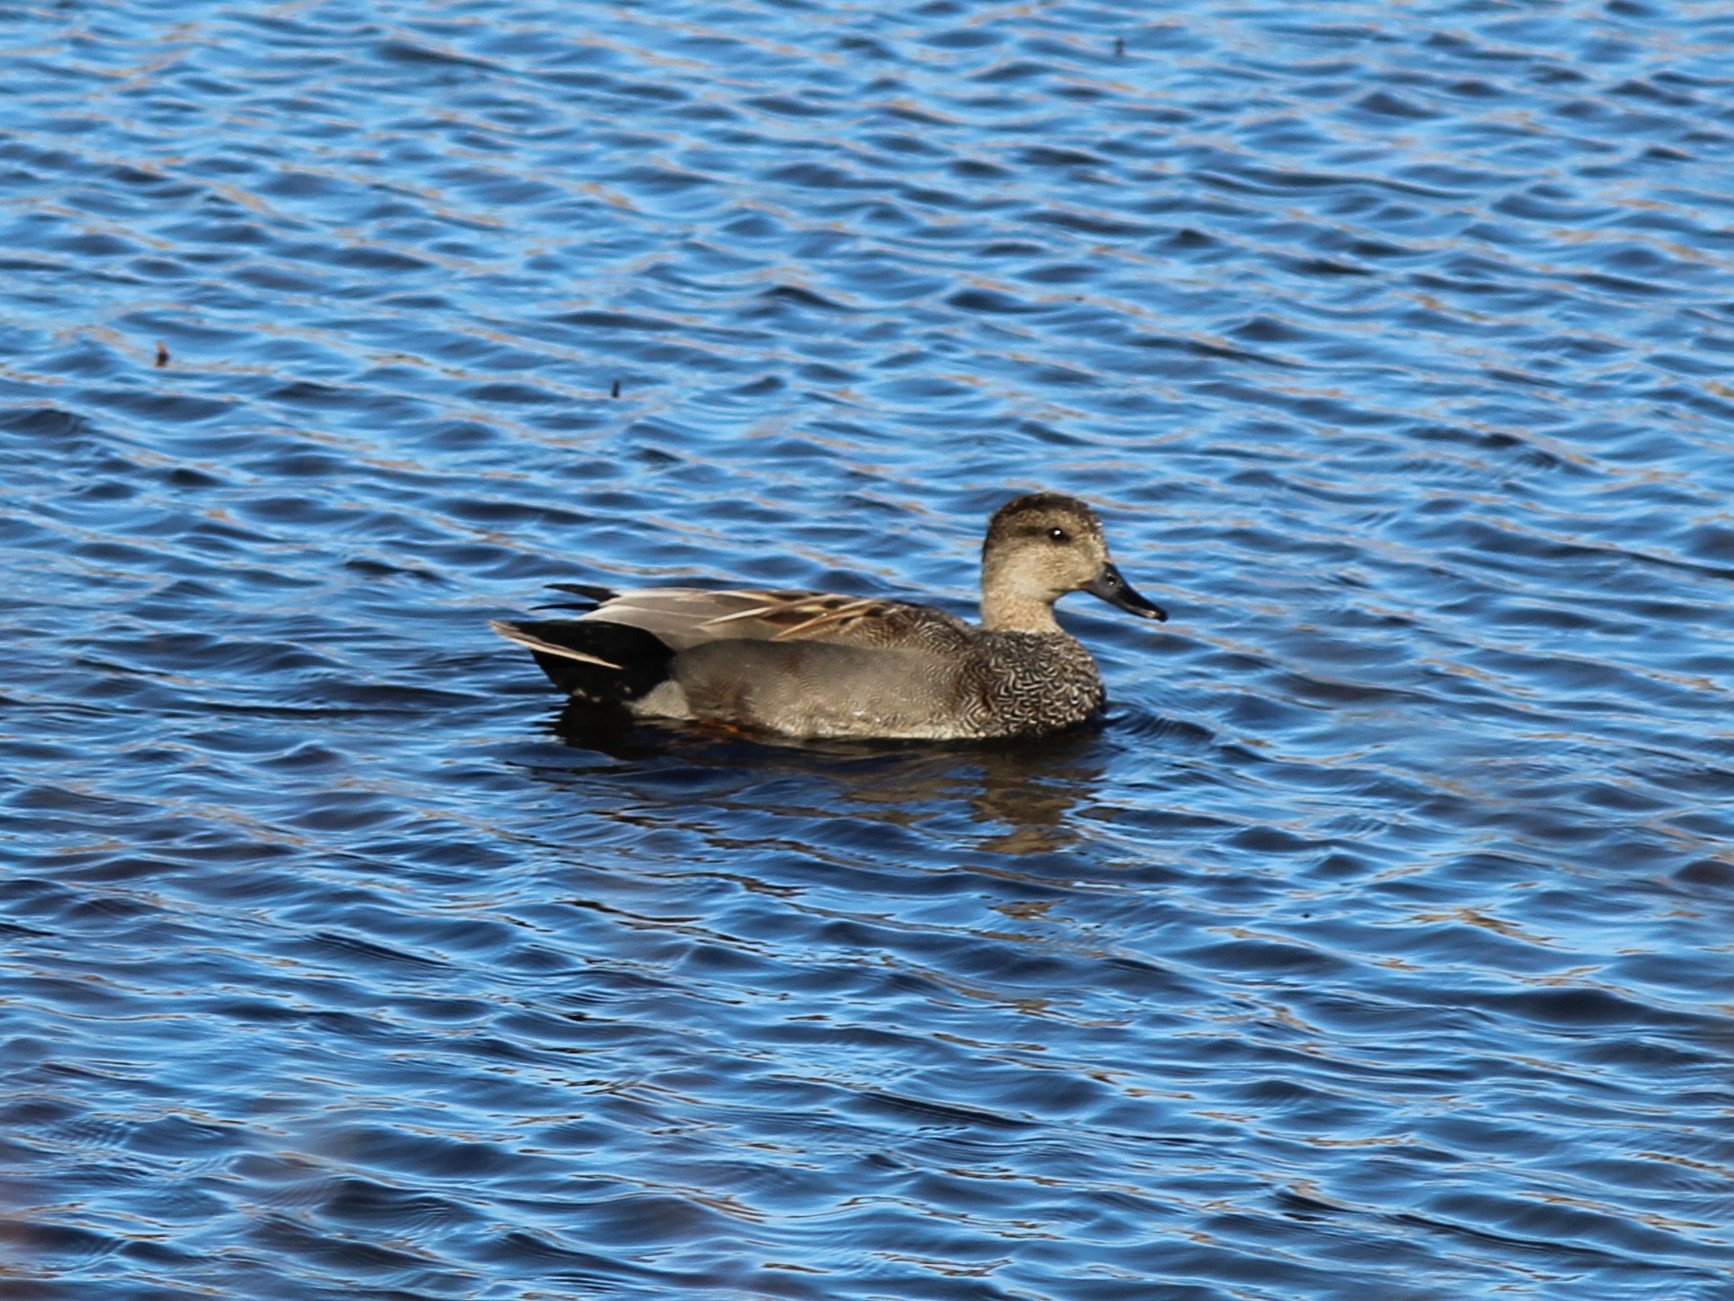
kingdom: Animalia
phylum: Chordata
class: Aves
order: Anseriformes
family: Anatidae
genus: Mareca
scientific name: Mareca strepera
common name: Gadwall
